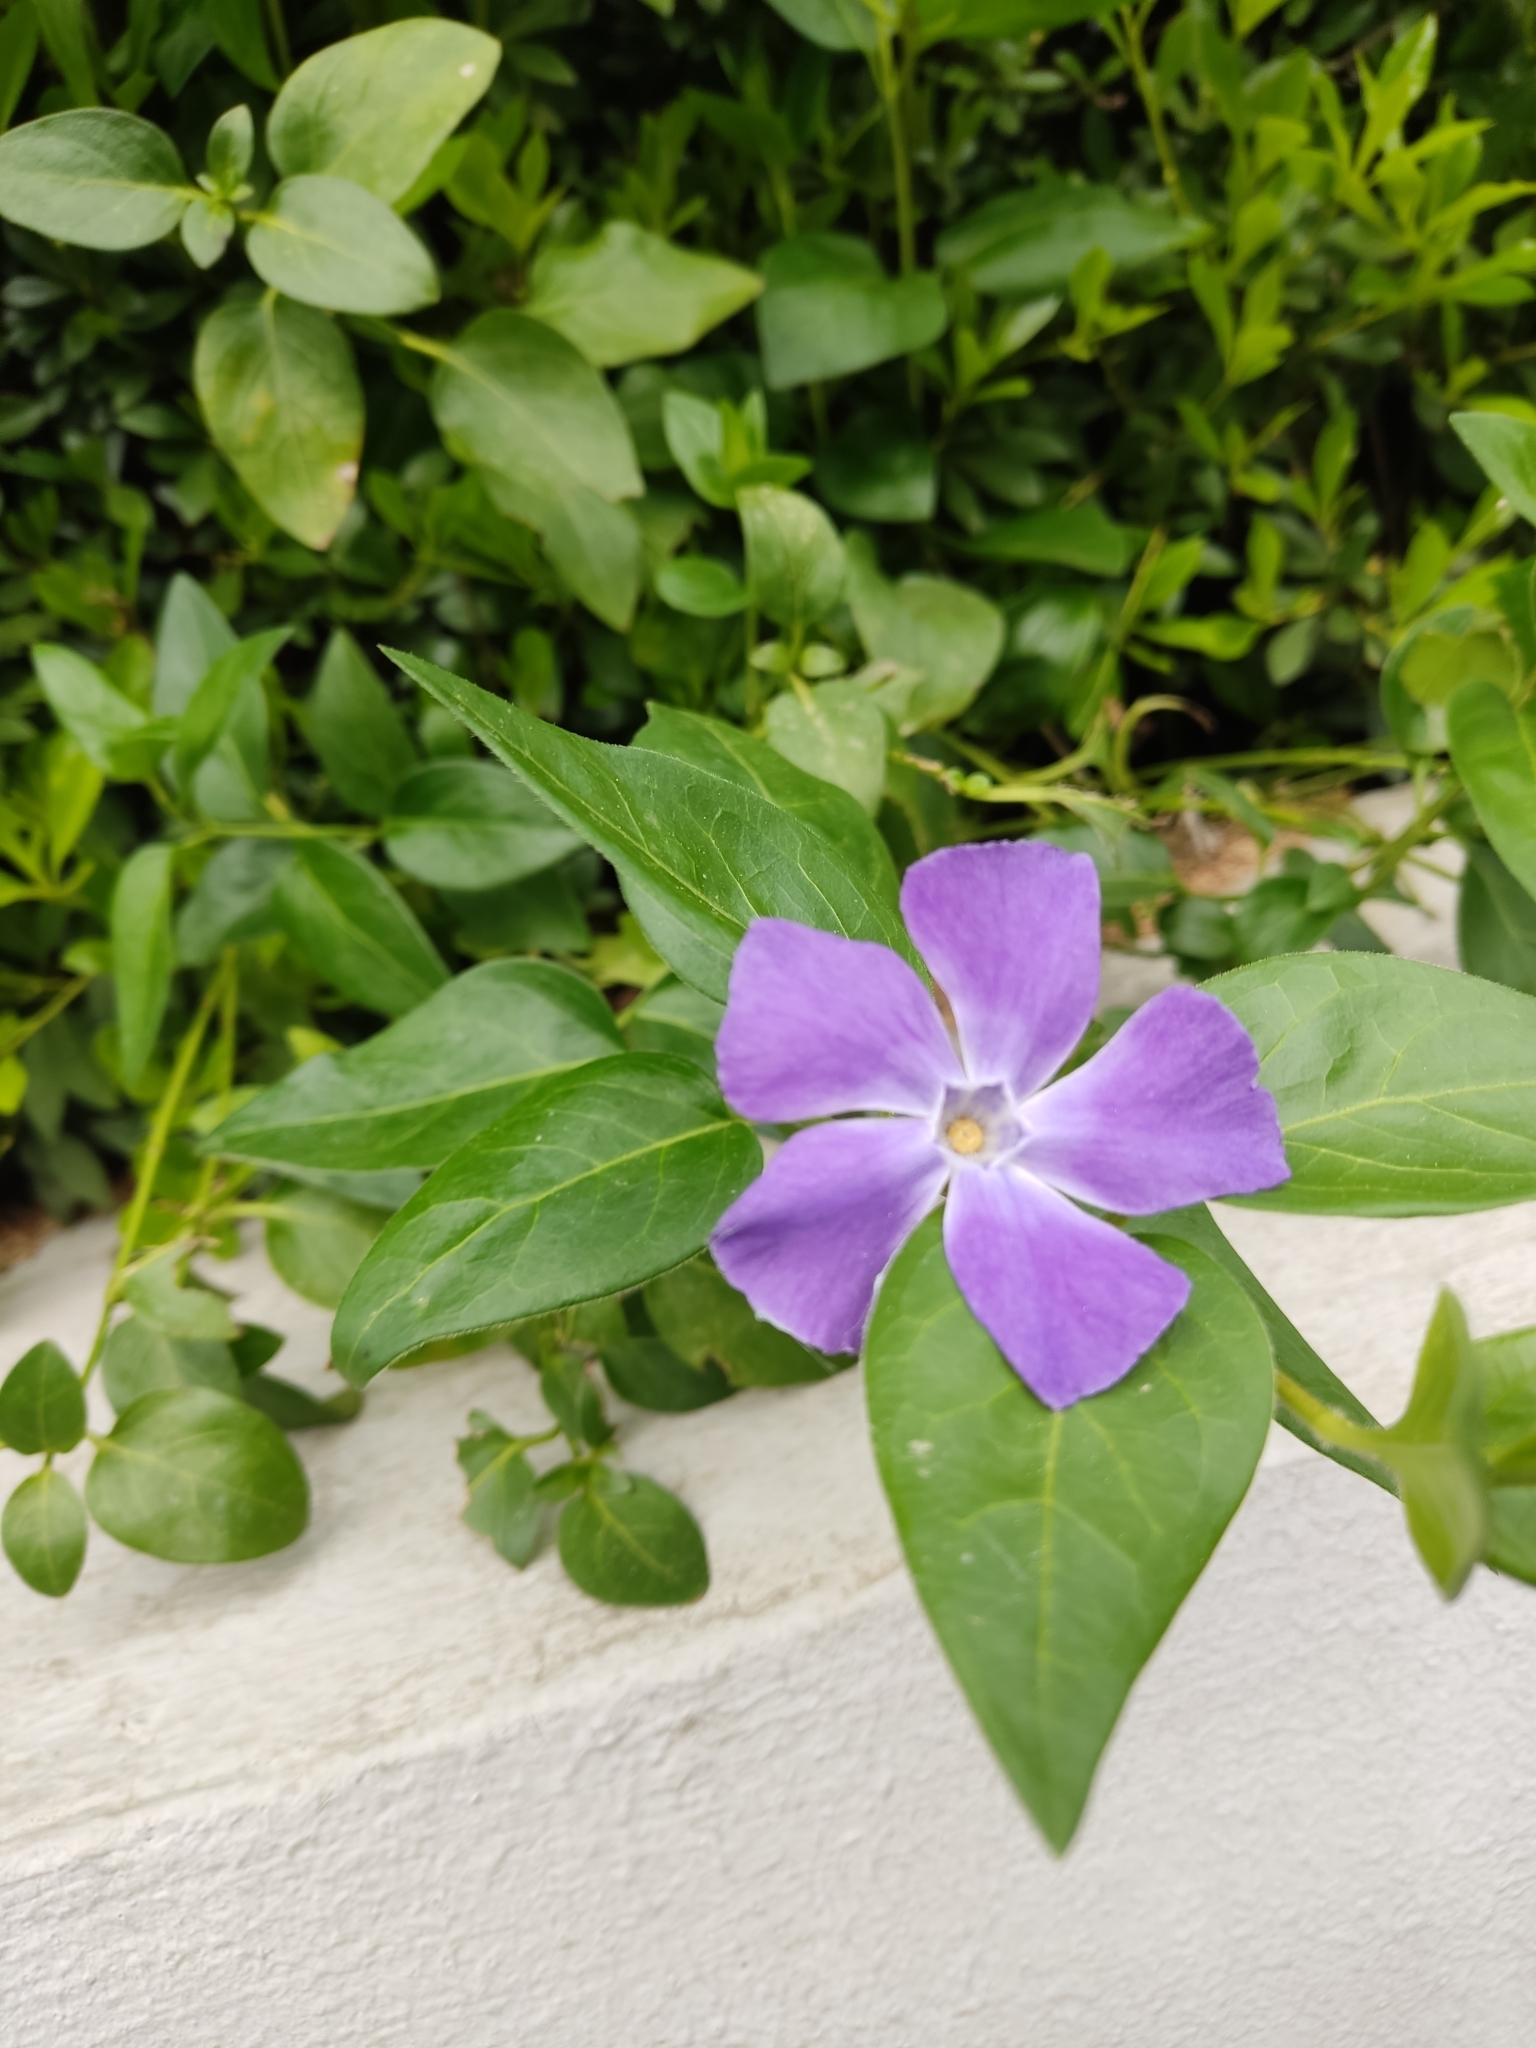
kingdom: Plantae
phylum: Tracheophyta
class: Magnoliopsida
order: Gentianales
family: Apocynaceae
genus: Vinca
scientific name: Vinca major
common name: Greater periwinkle
